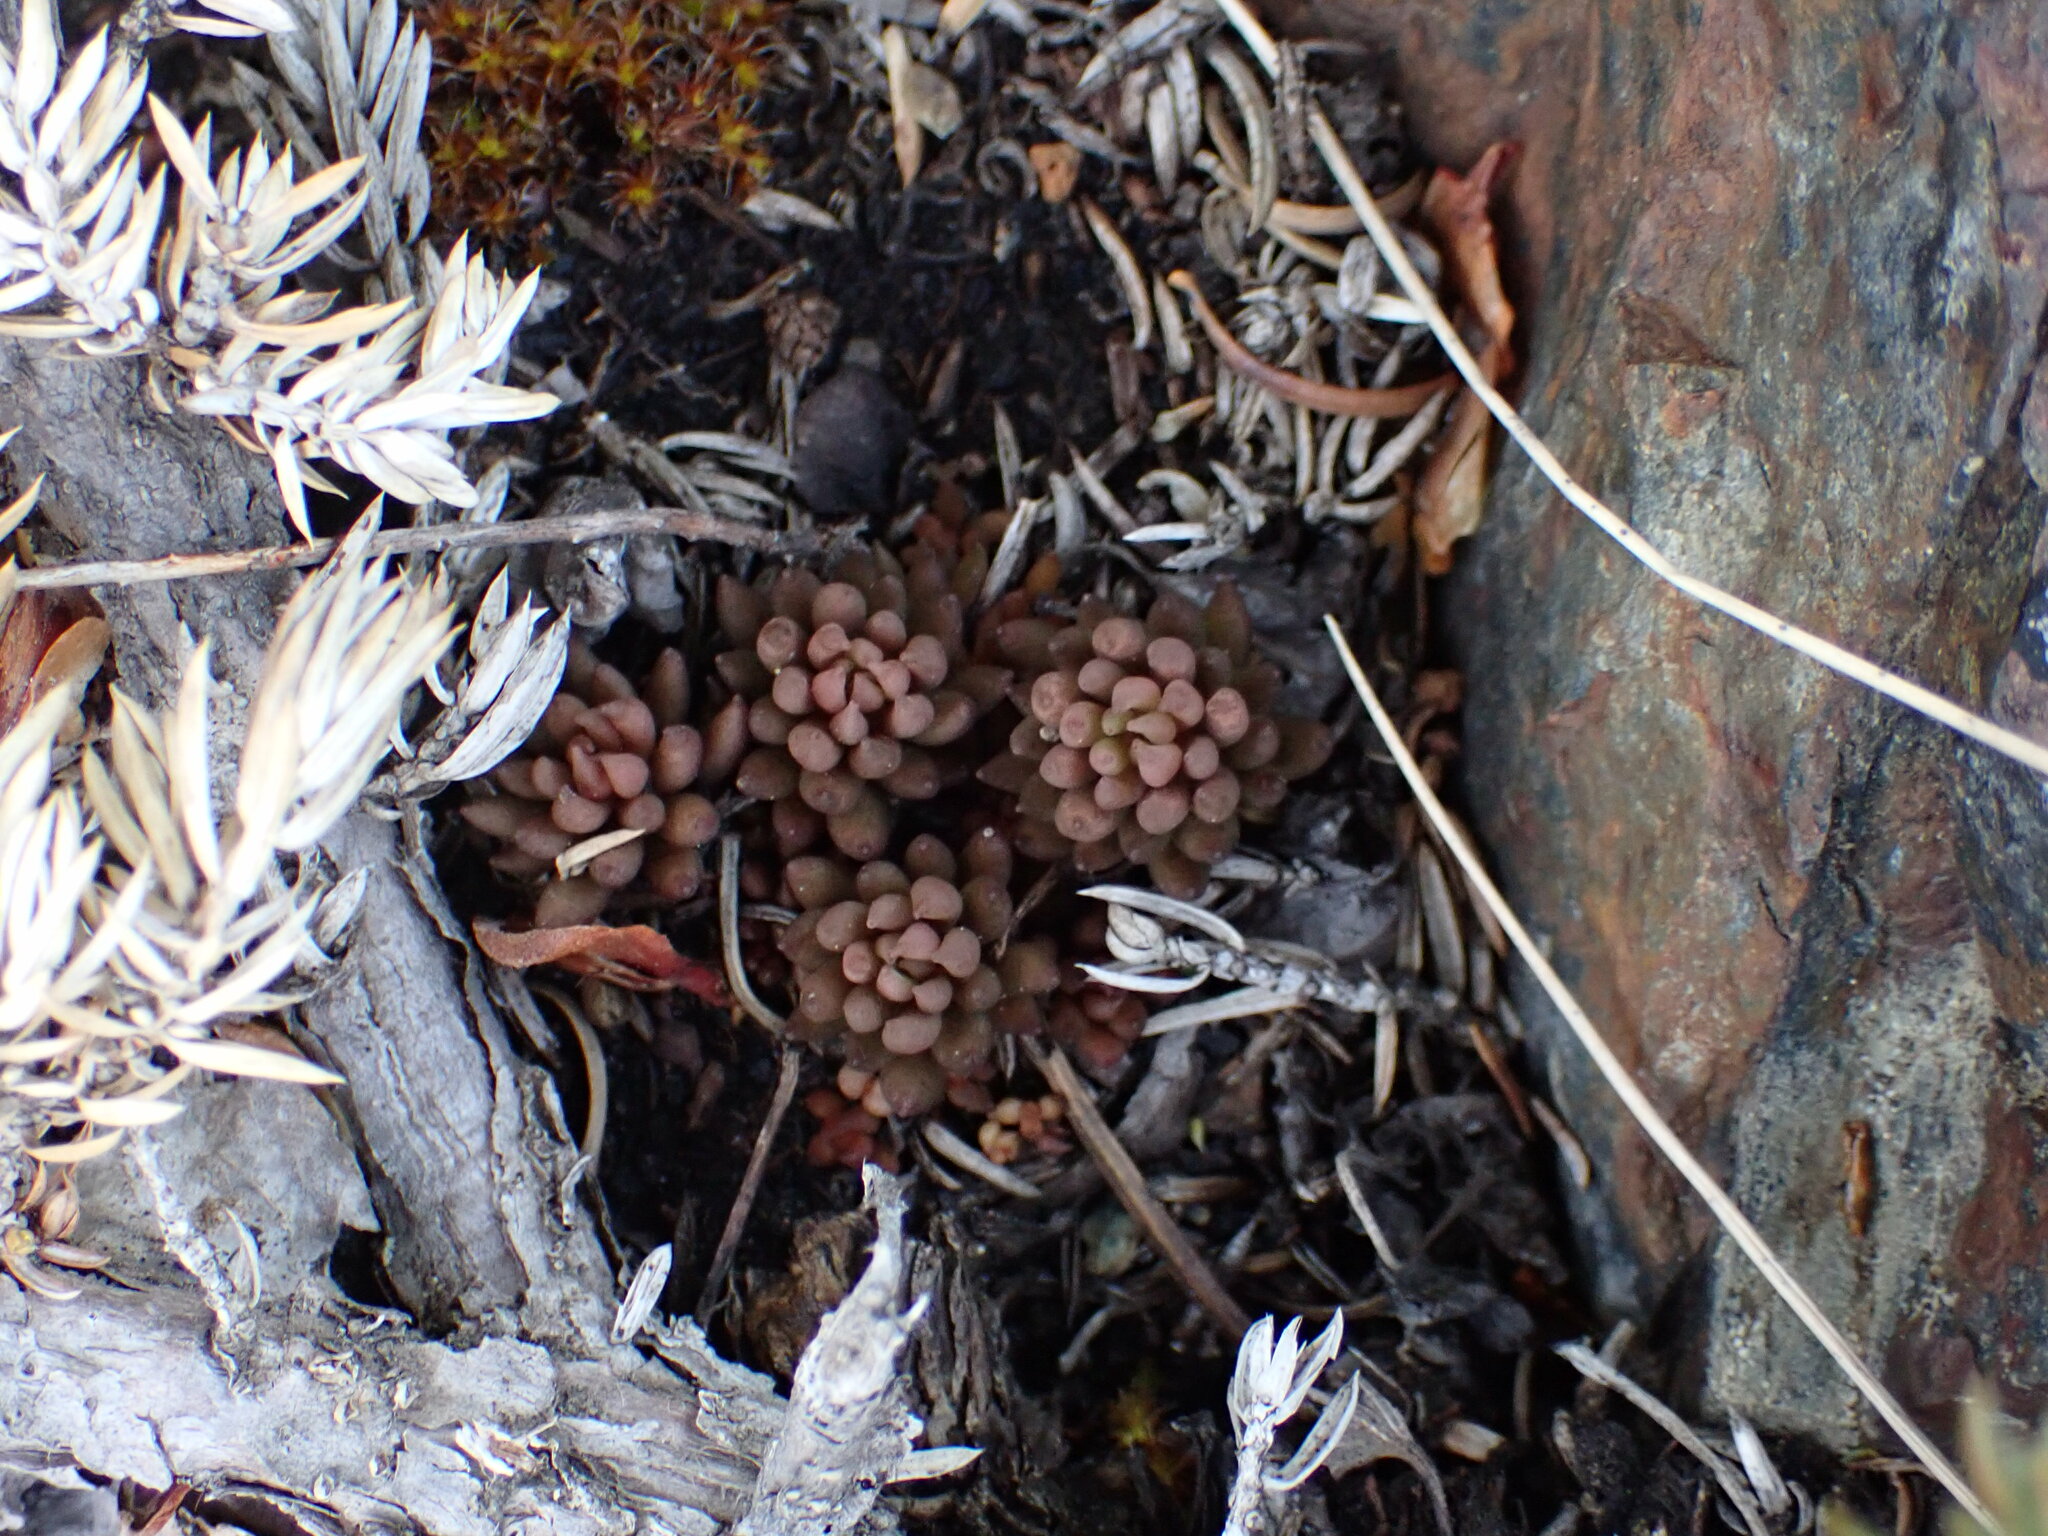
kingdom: Plantae
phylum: Tracheophyta
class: Magnoliopsida
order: Saxifragales
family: Crassulaceae
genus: Sedum
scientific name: Sedum lanceolatum
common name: Common stonecrop
